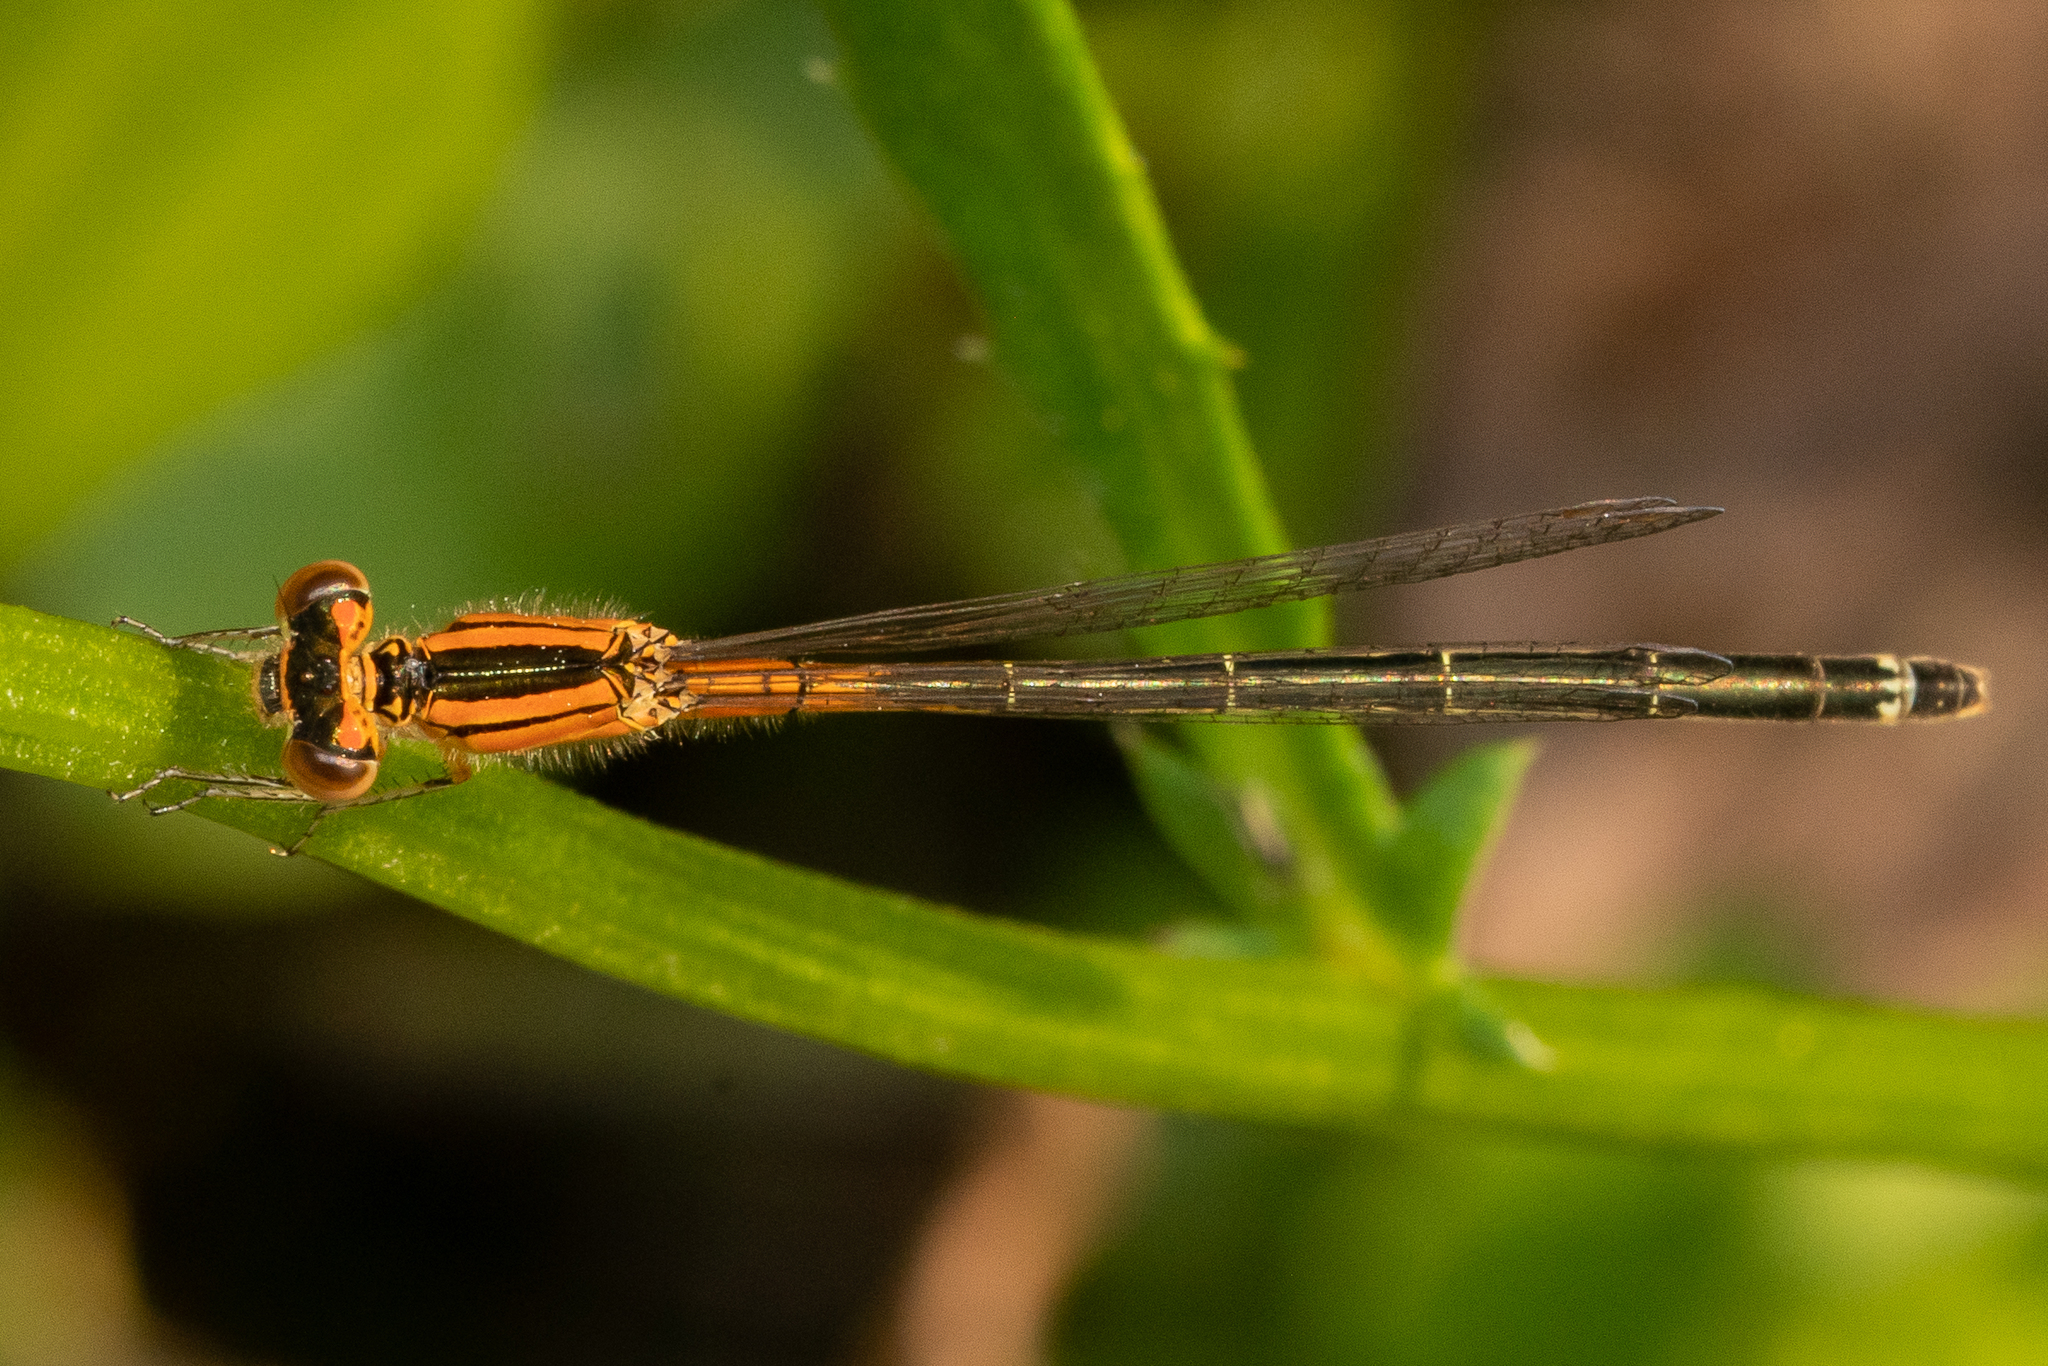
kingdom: Animalia
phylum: Arthropoda
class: Insecta
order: Odonata
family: Coenagrionidae
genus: Ischnura
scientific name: Ischnura verticalis
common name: Eastern forktail
